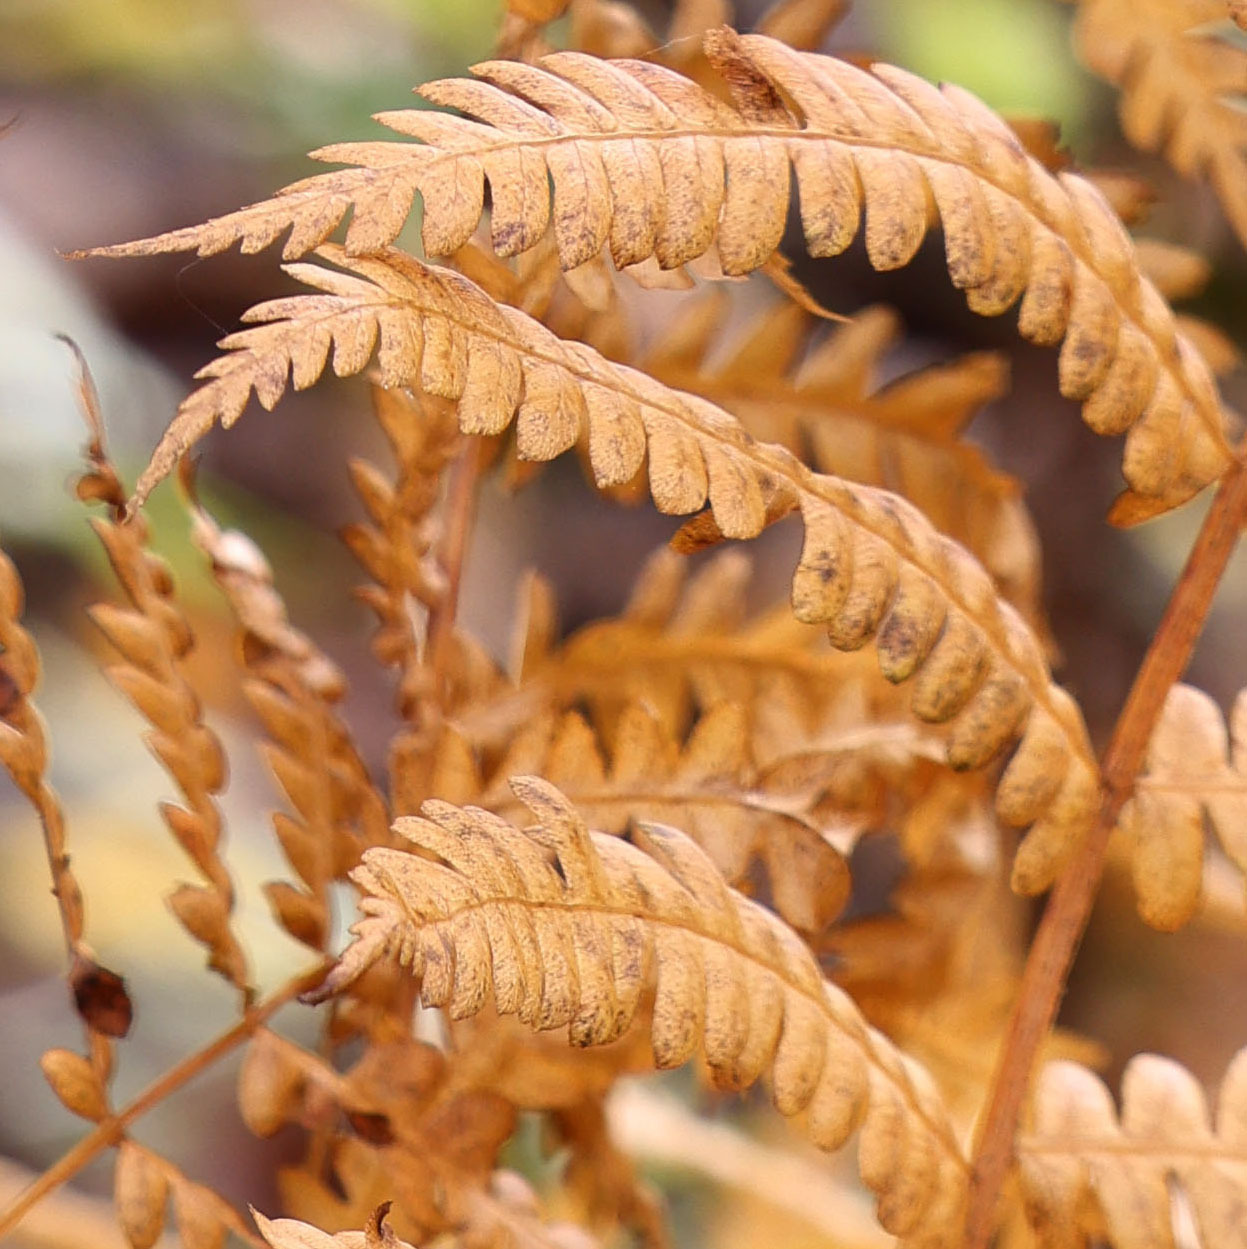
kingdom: Plantae
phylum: Tracheophyta
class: Polypodiopsida
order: Osmundales
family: Osmundaceae
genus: Osmundastrum
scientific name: Osmundastrum cinnamomeum
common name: Cinnamon fern
